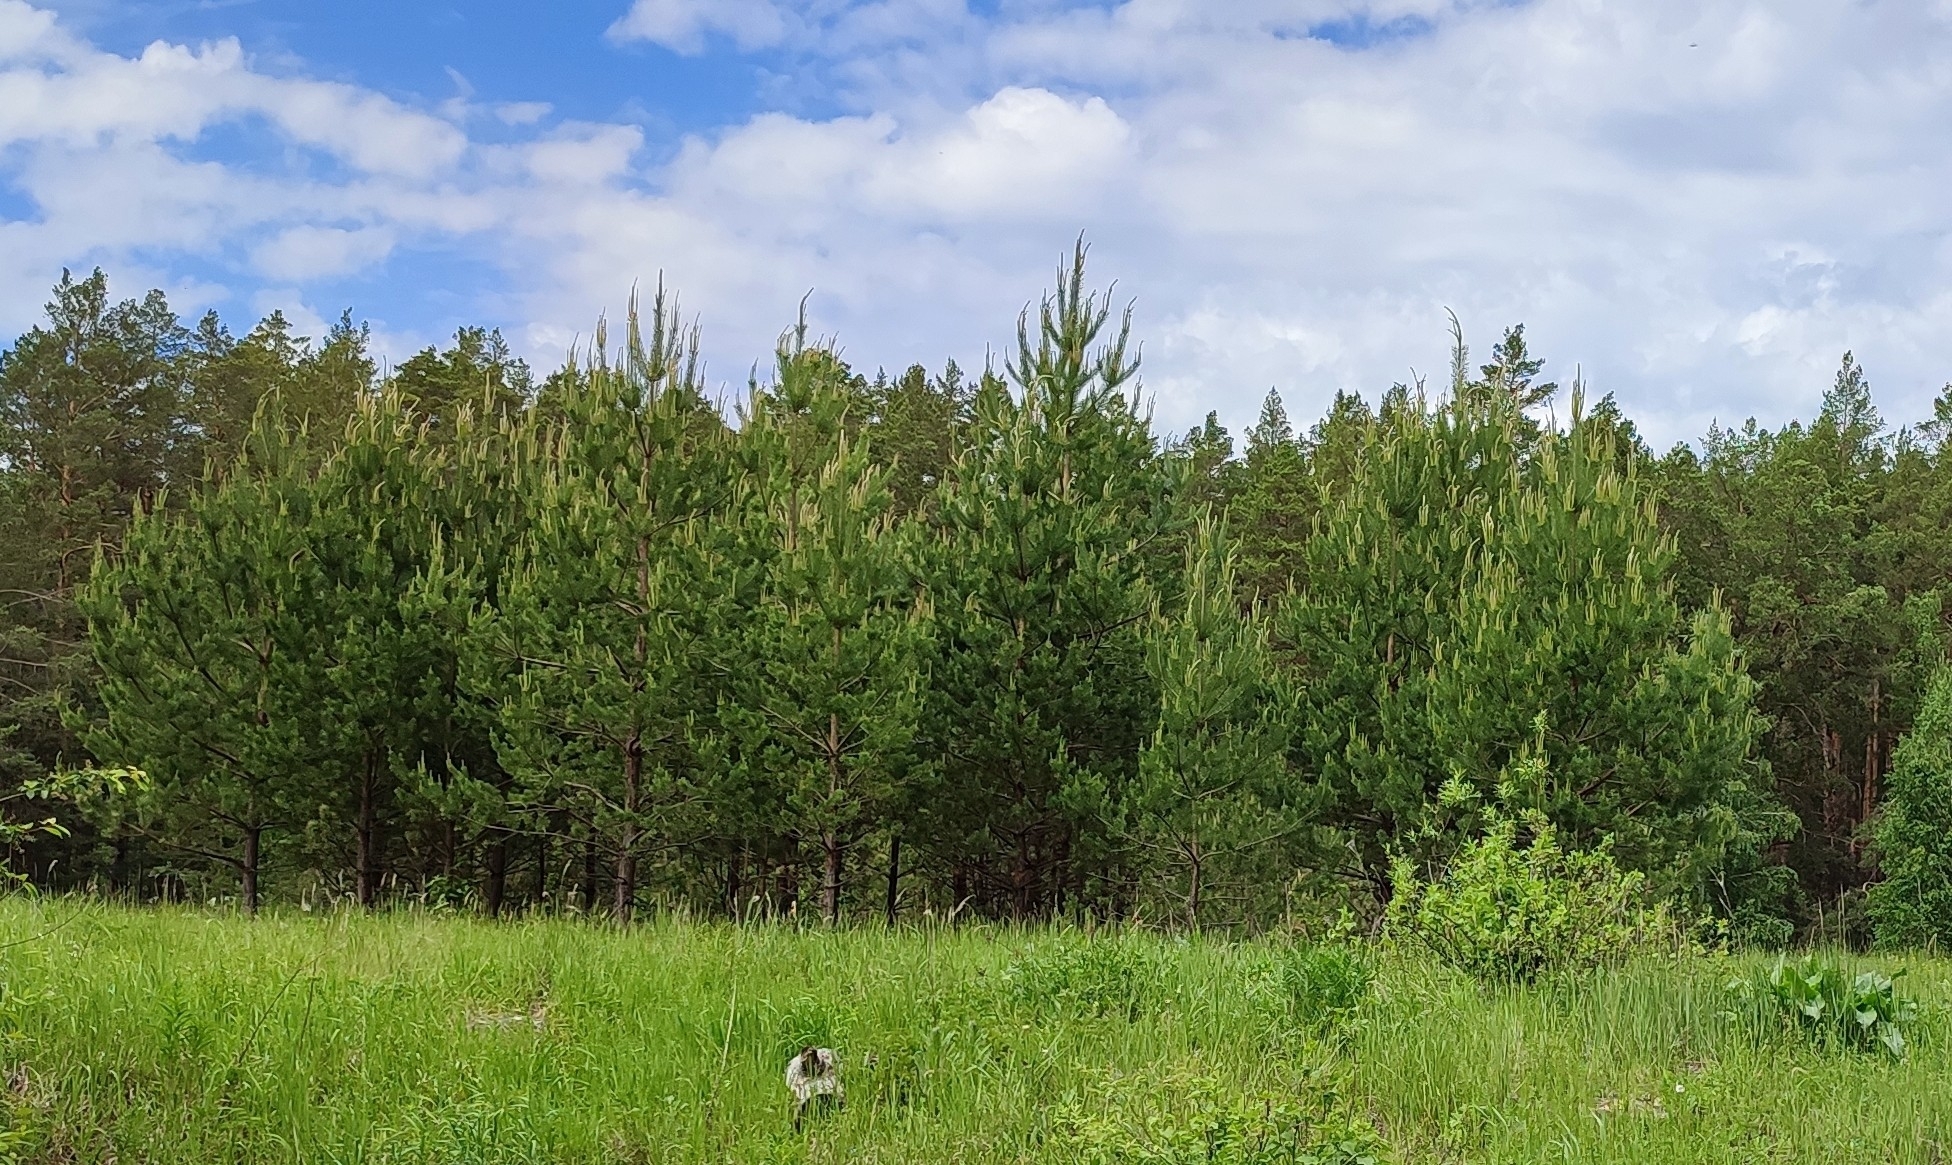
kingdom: Plantae
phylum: Tracheophyta
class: Pinopsida
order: Pinales
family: Pinaceae
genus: Pinus
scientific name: Pinus sylvestris
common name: Scots pine
